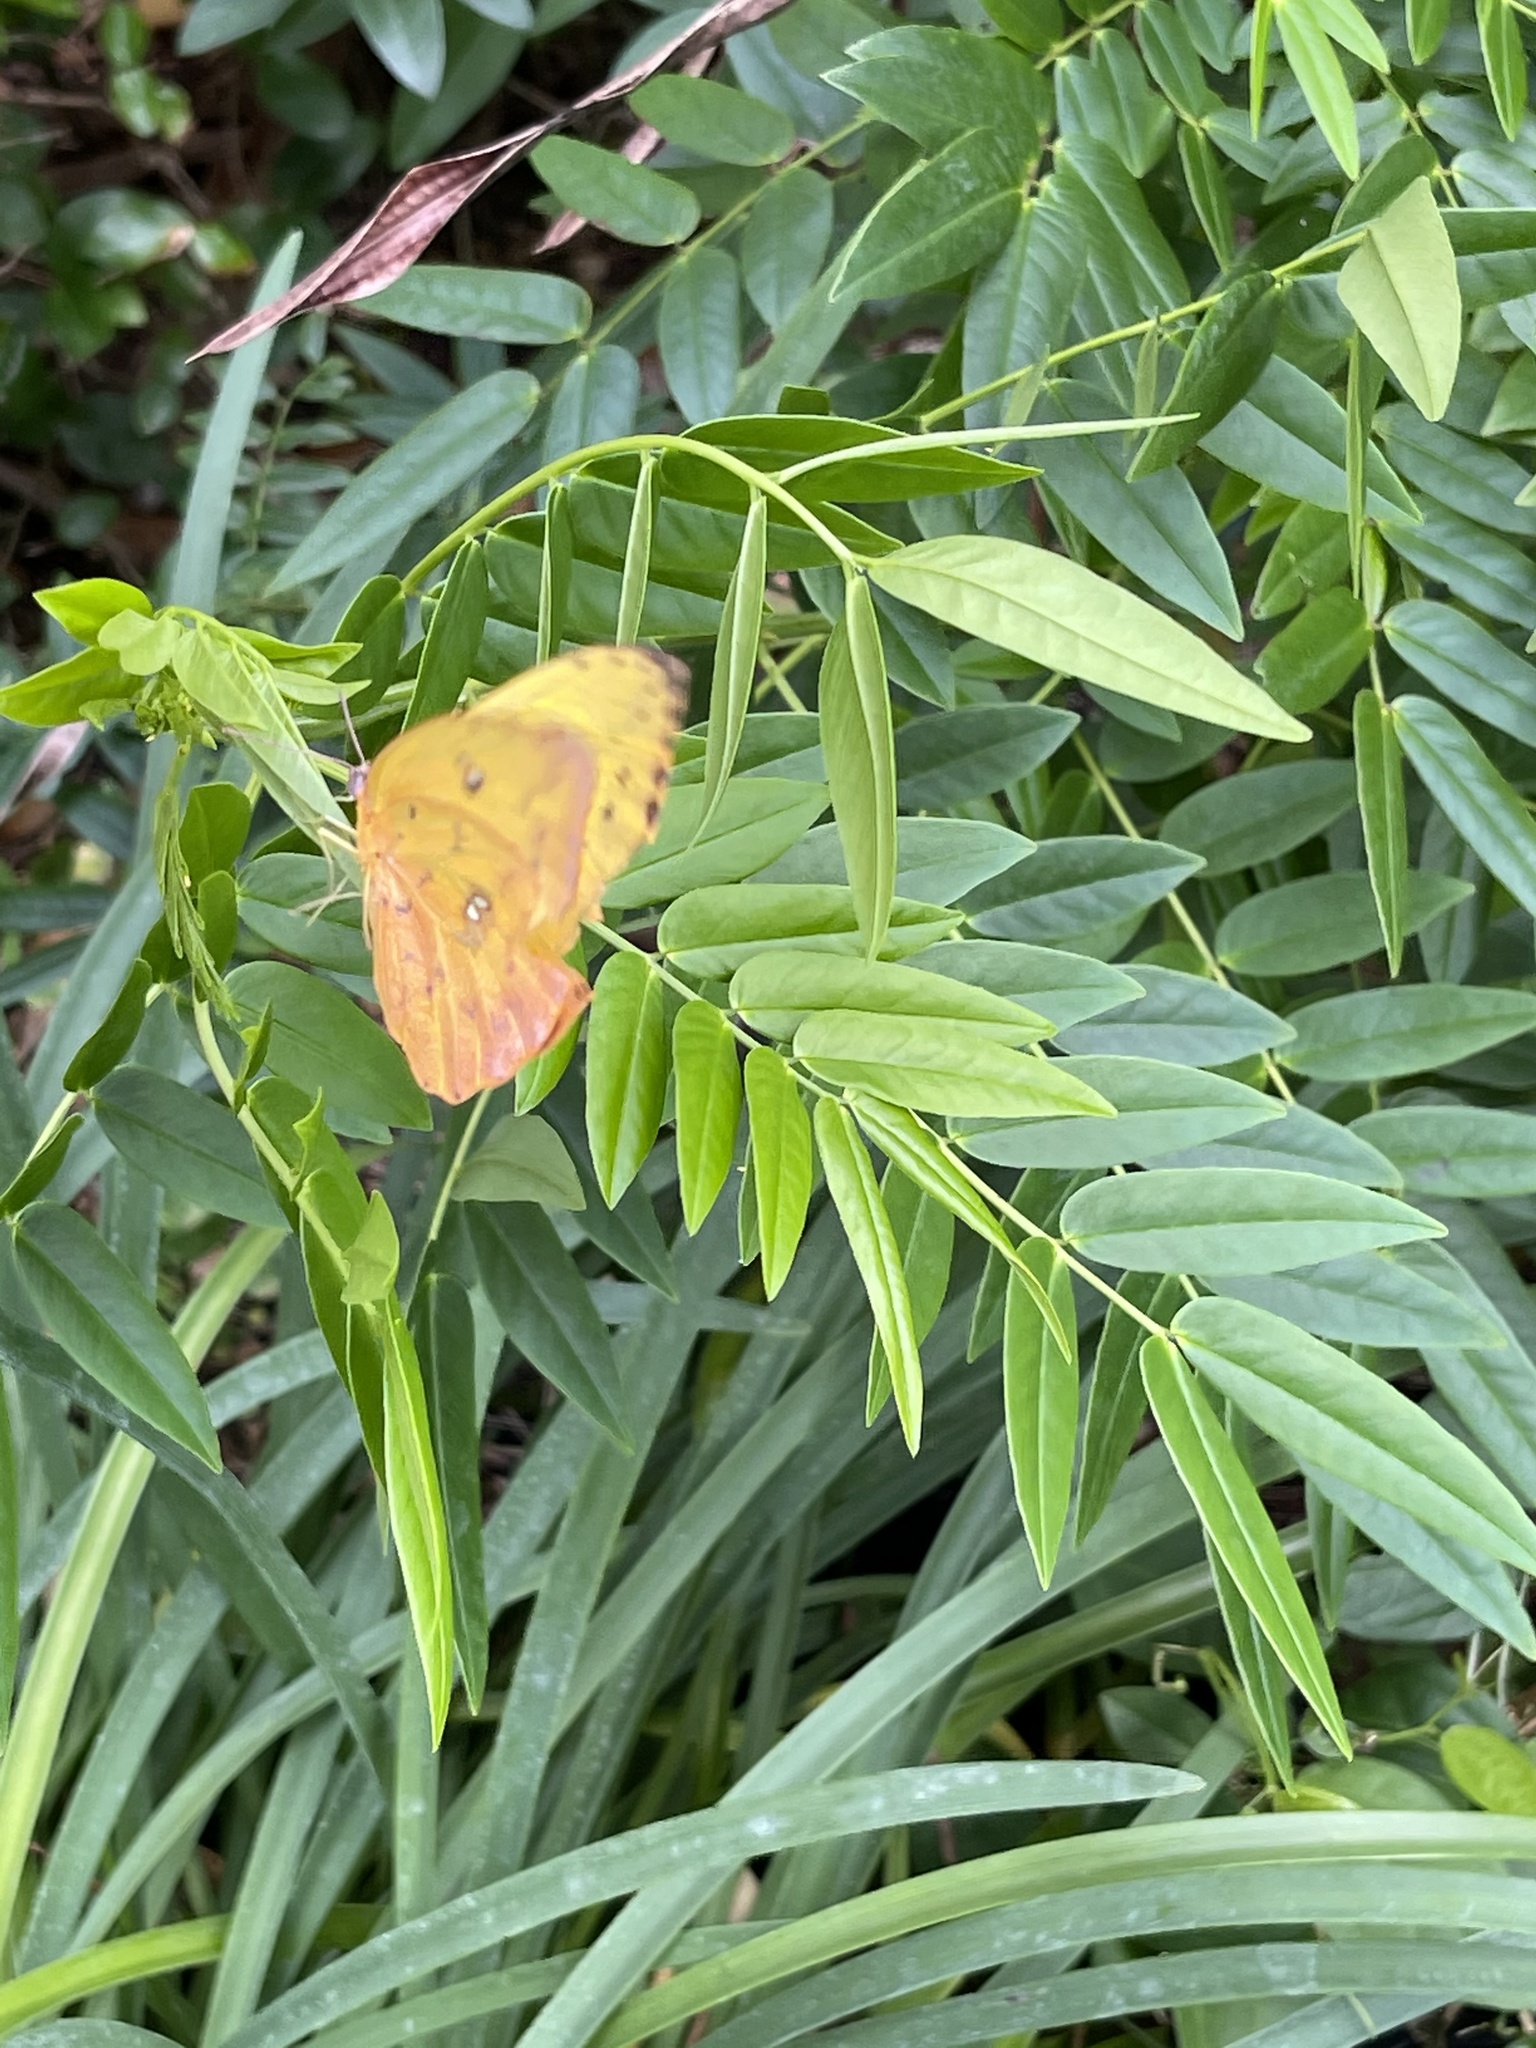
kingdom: Animalia
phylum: Arthropoda
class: Insecta
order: Lepidoptera
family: Pieridae
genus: Phoebis
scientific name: Phoebis philea
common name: Orange-barred giant sulphur
